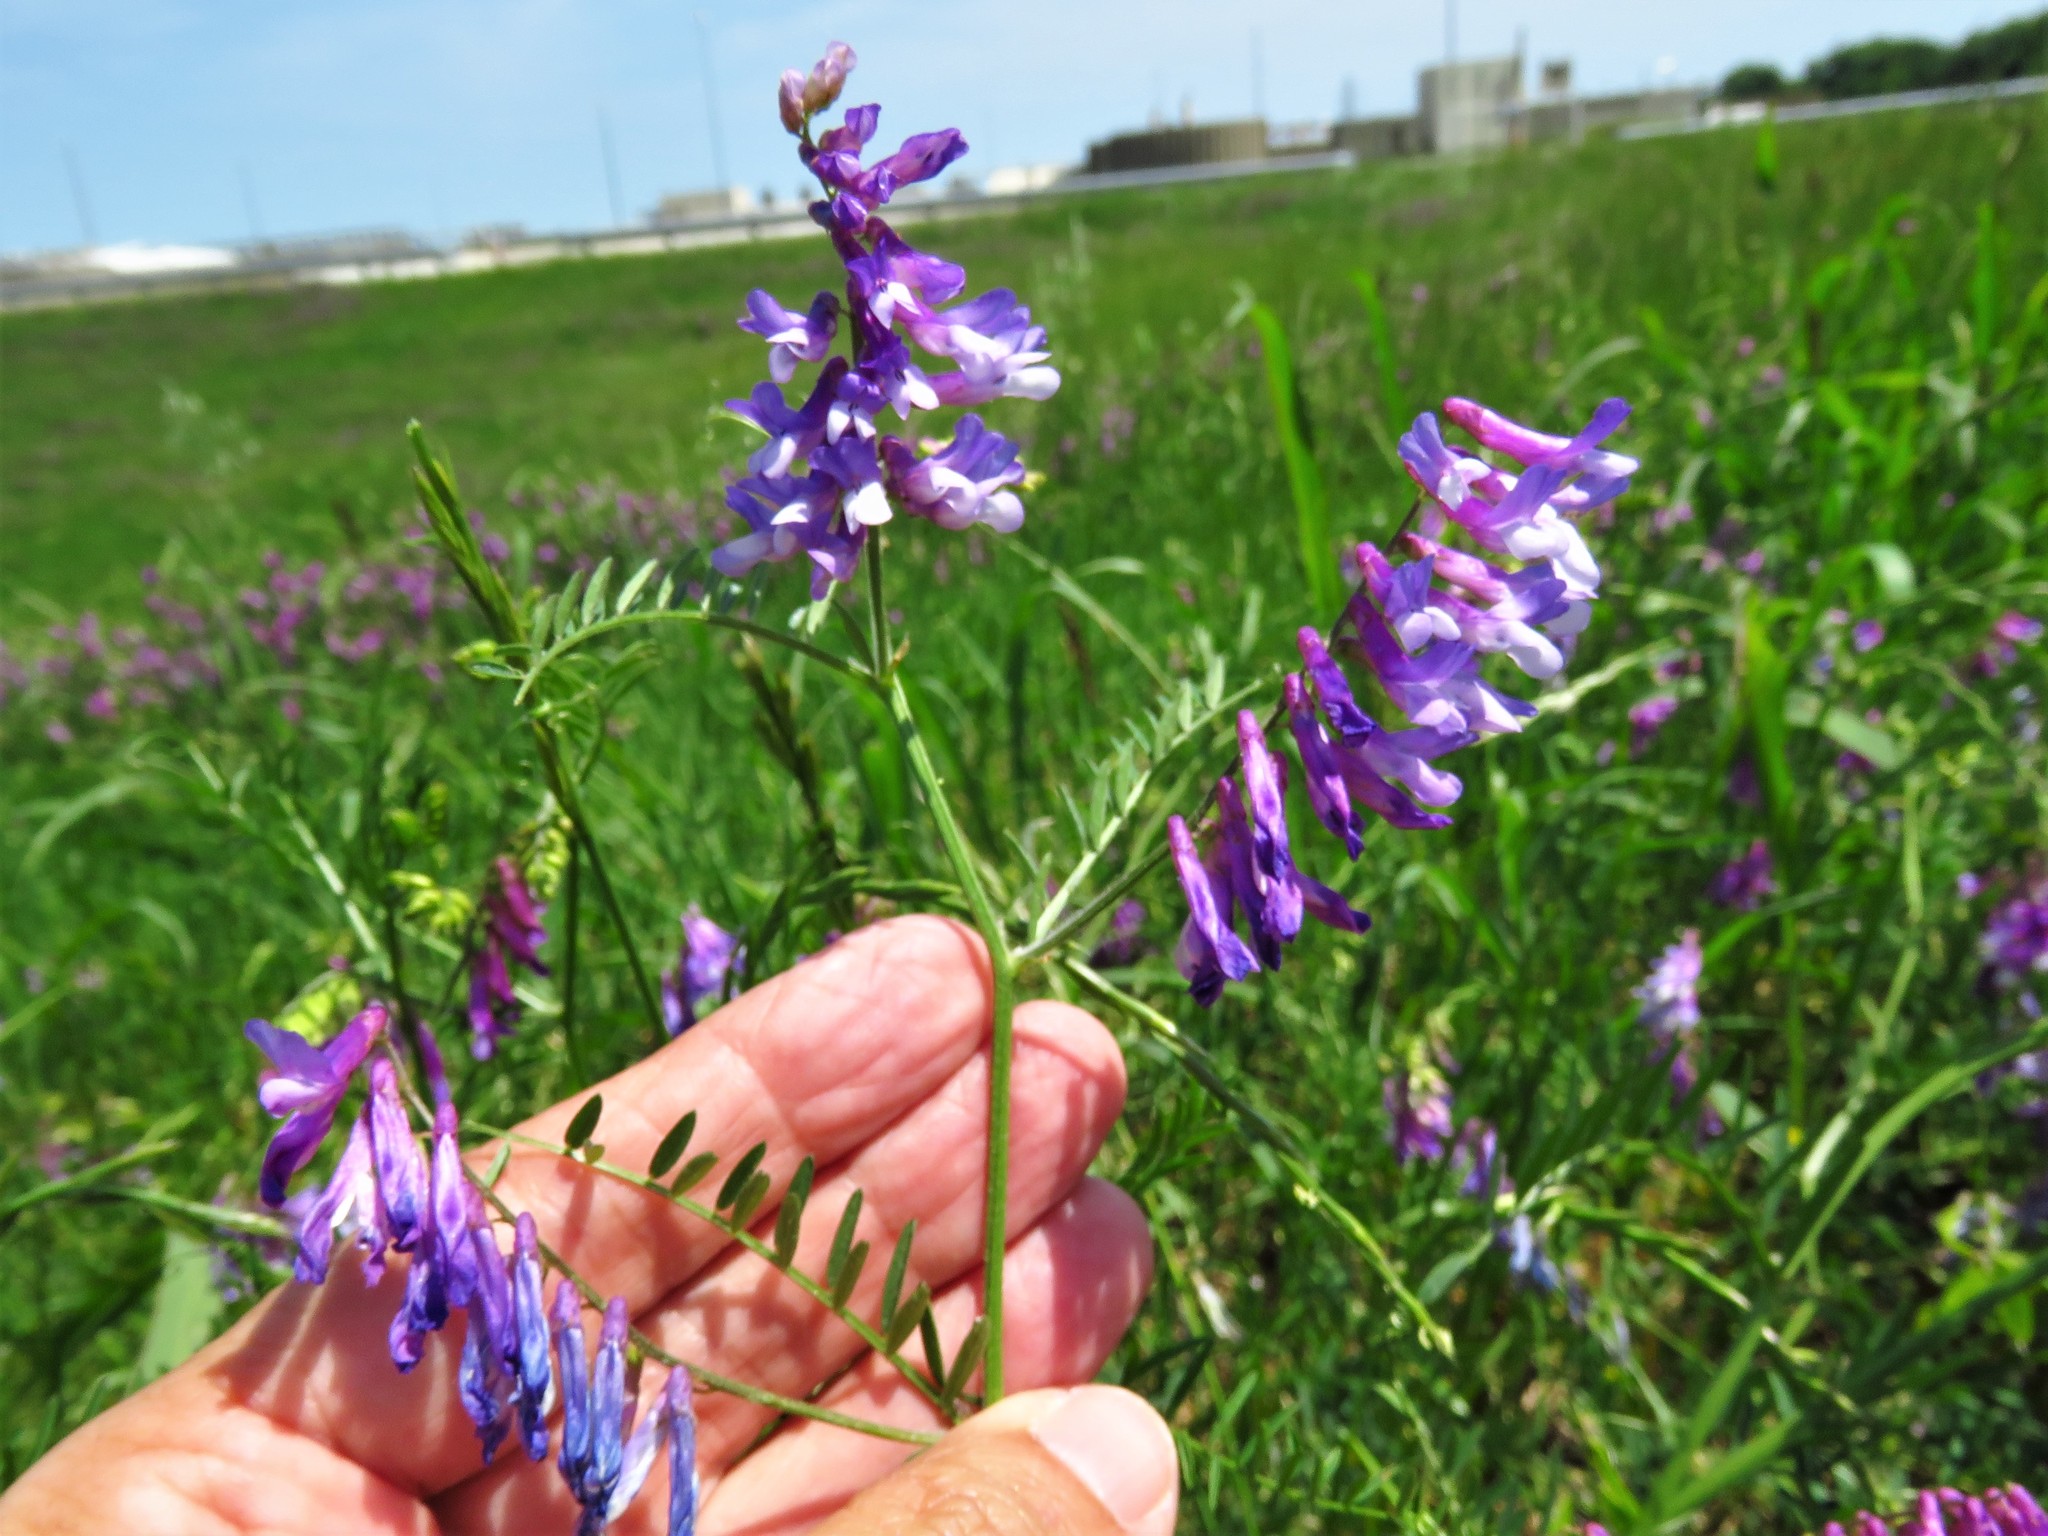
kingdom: Plantae
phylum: Tracheophyta
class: Magnoliopsida
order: Fabales
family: Fabaceae
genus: Vicia
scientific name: Vicia villosa
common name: Fodder vetch
